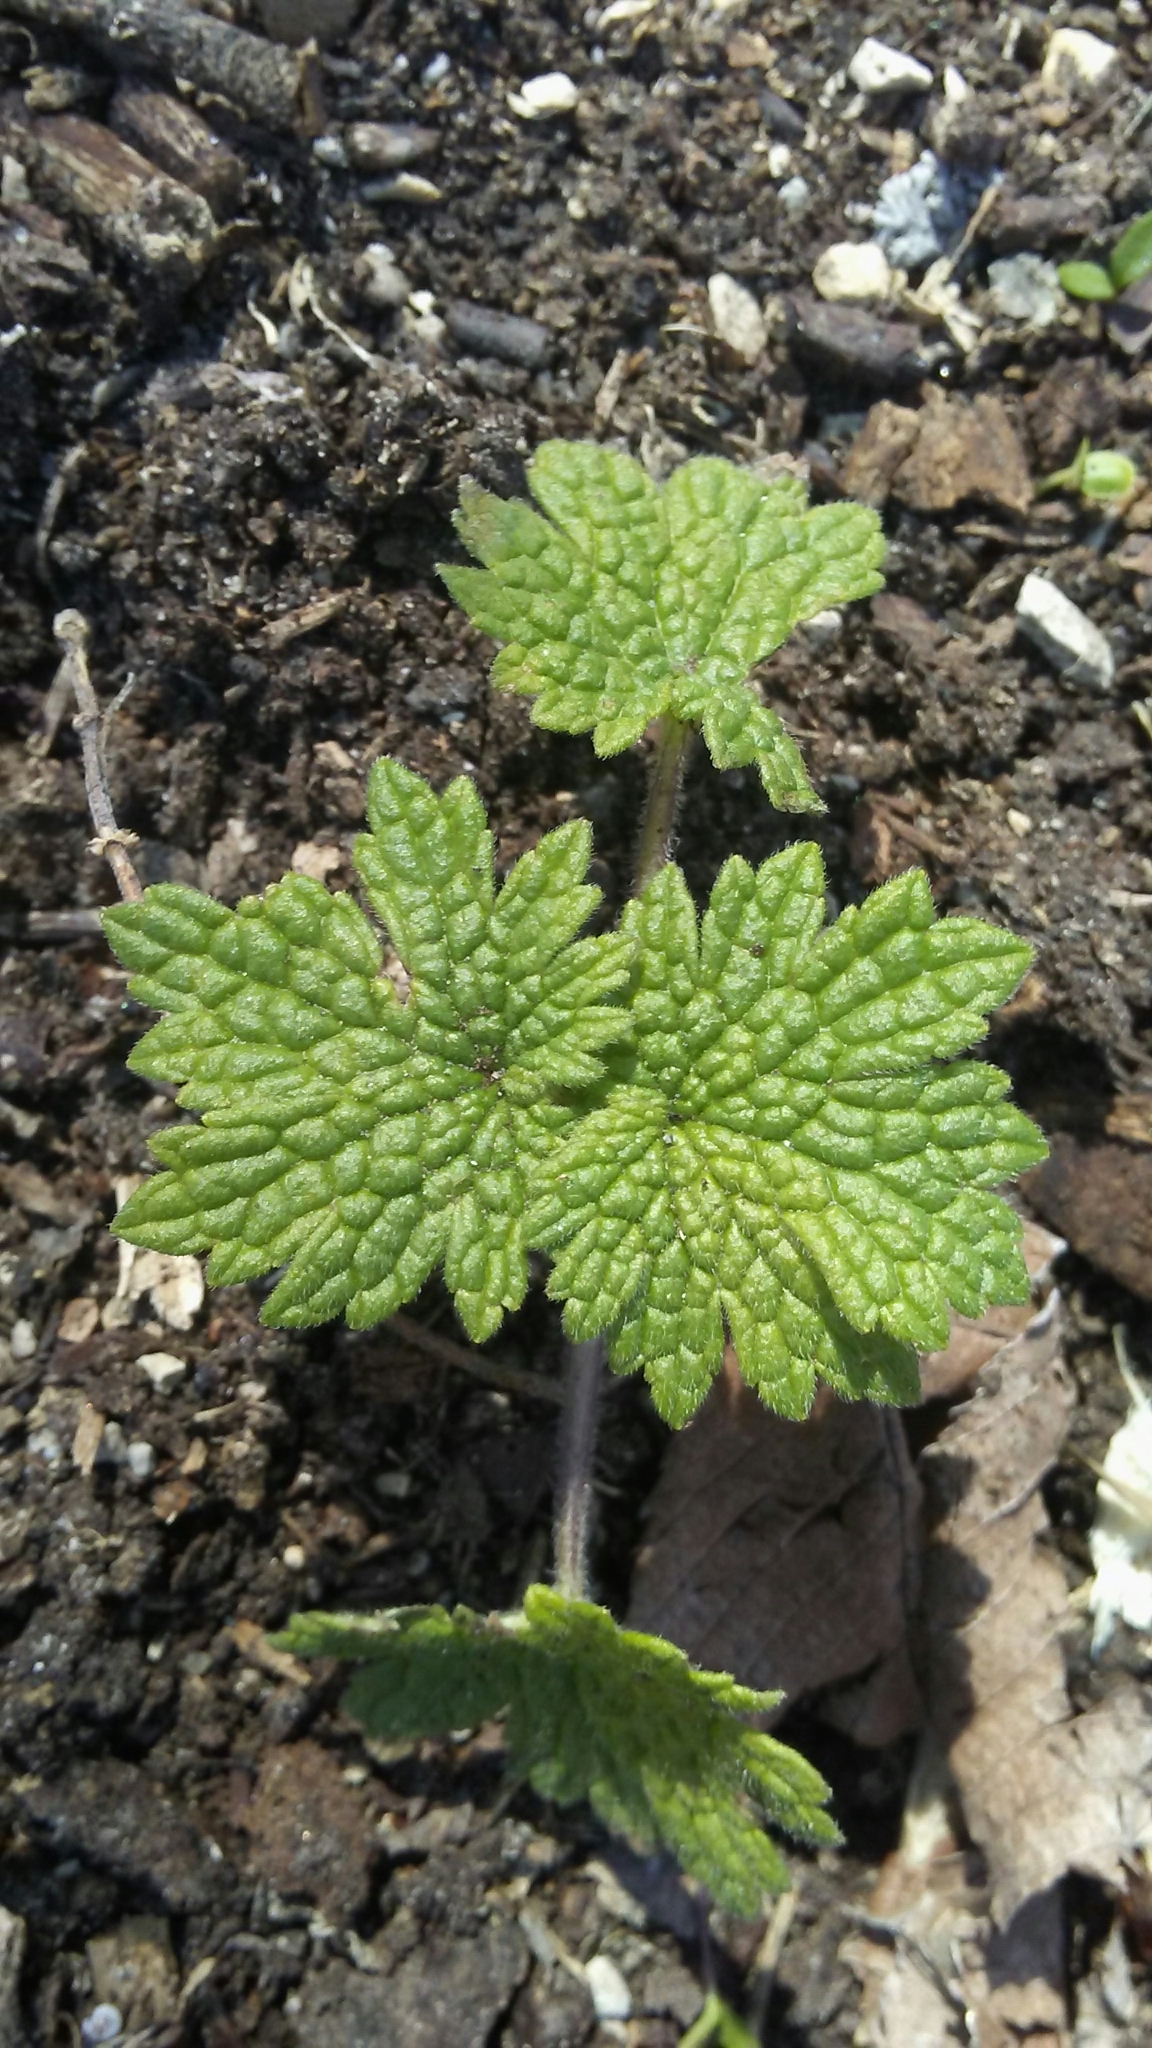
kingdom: Plantae
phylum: Tracheophyta
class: Magnoliopsida
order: Lamiales
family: Lamiaceae
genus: Leonurus
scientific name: Leonurus cardiaca
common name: Motherwort
